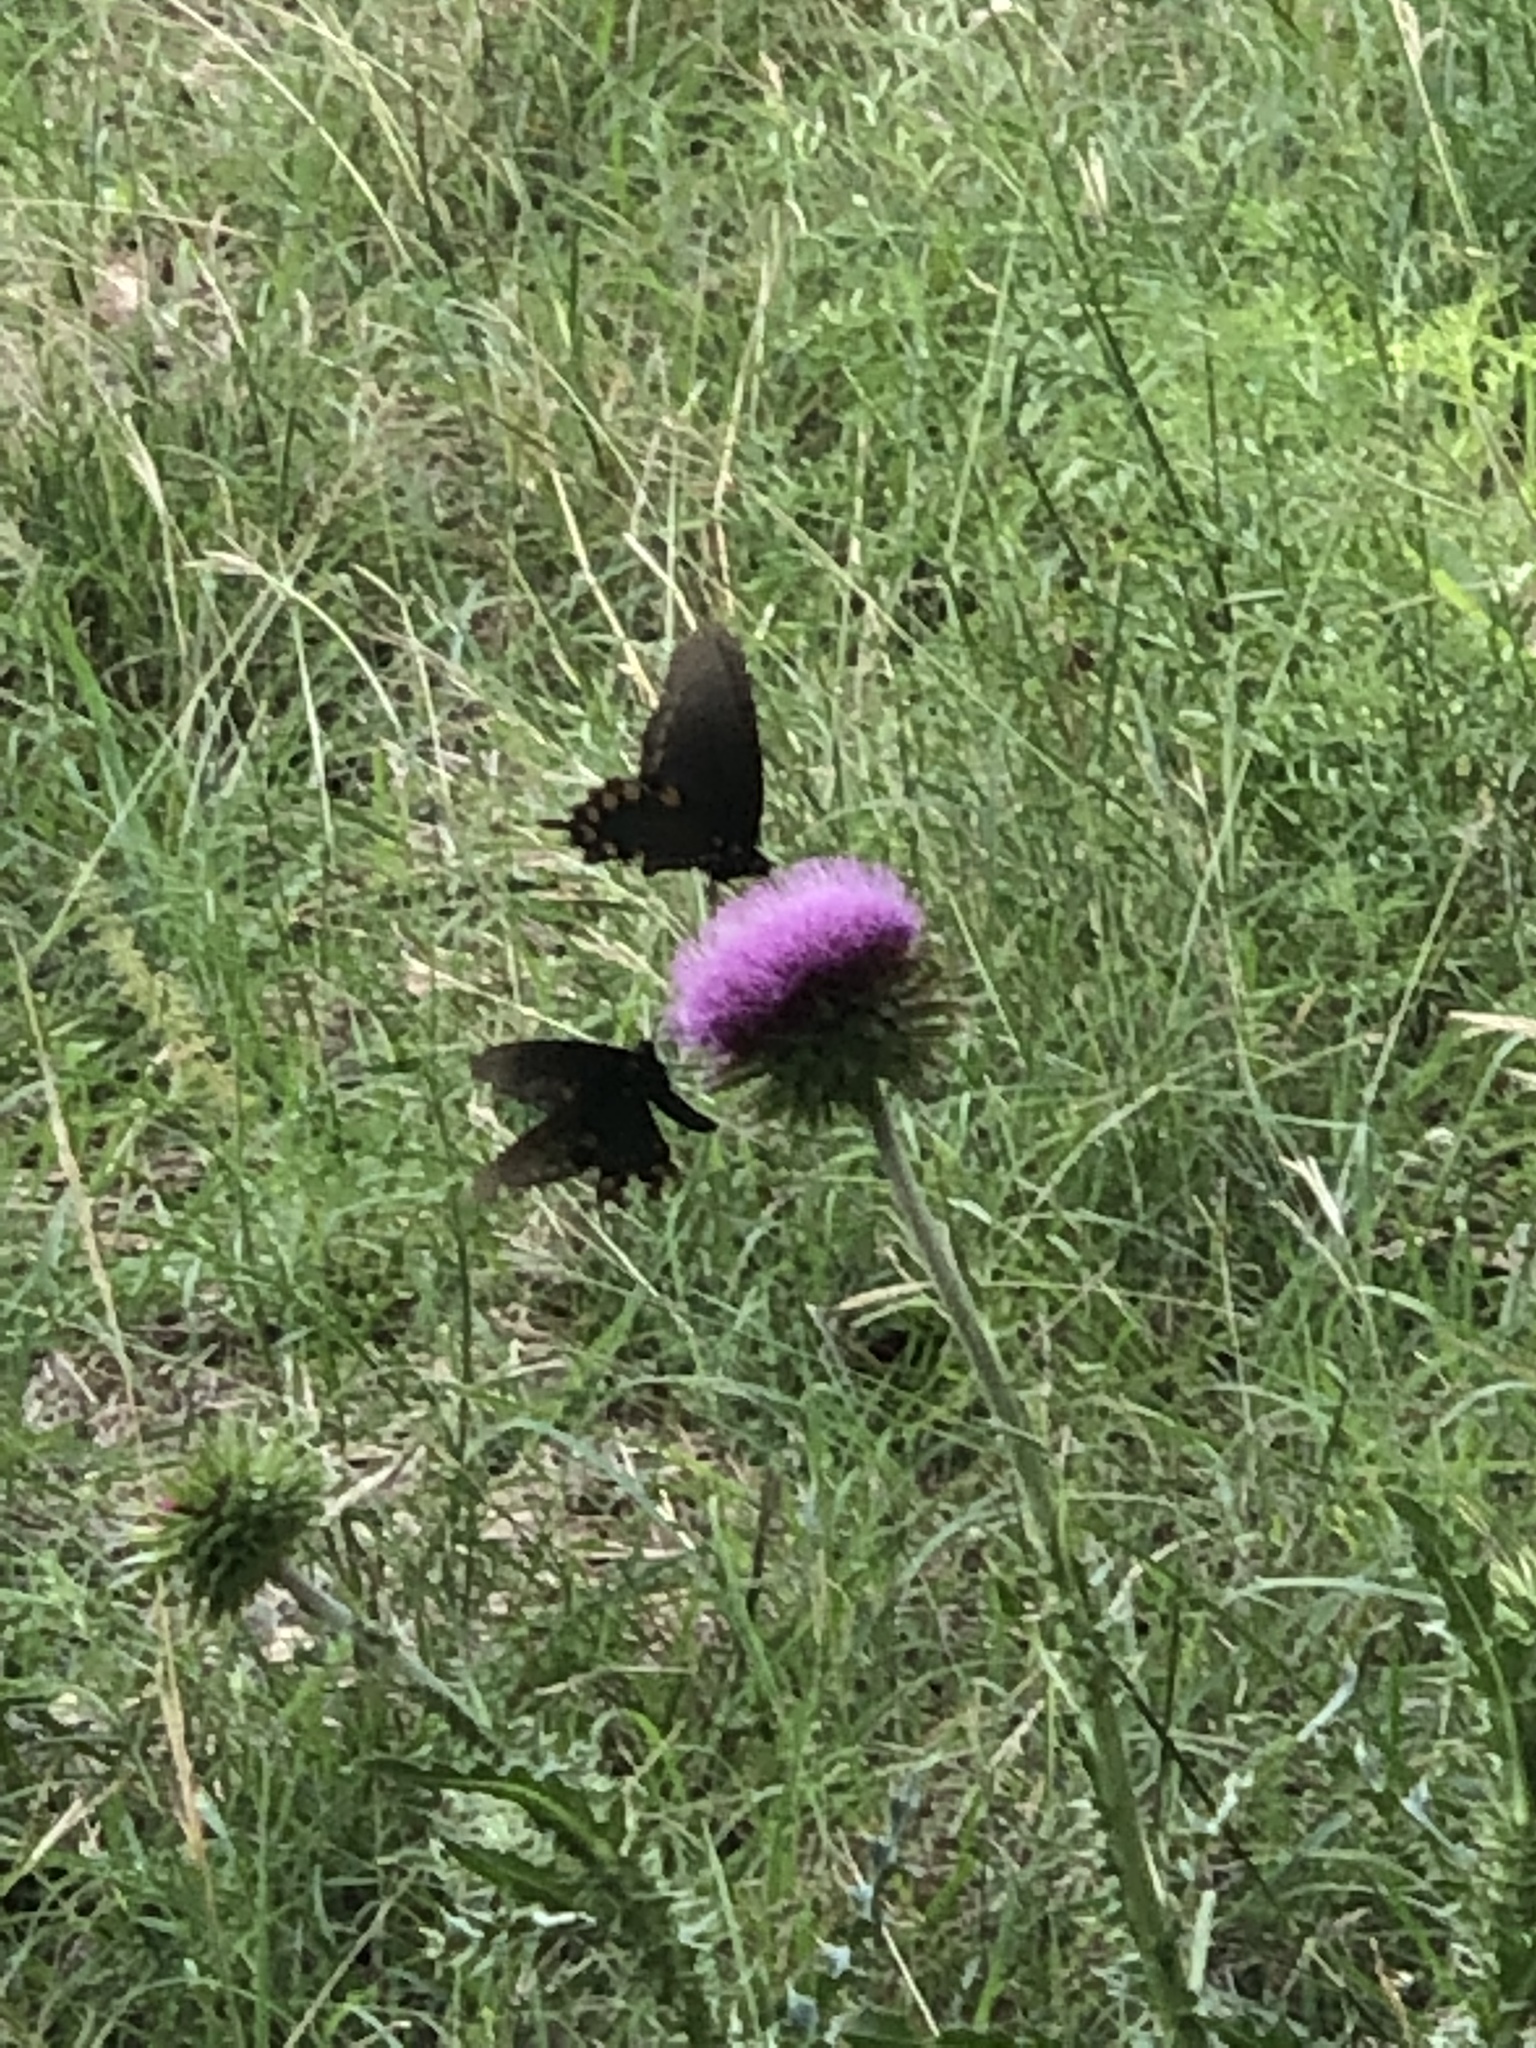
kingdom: Animalia
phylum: Arthropoda
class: Insecta
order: Lepidoptera
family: Papilionidae
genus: Battus
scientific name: Battus philenor
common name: Pipevine swallowtail
